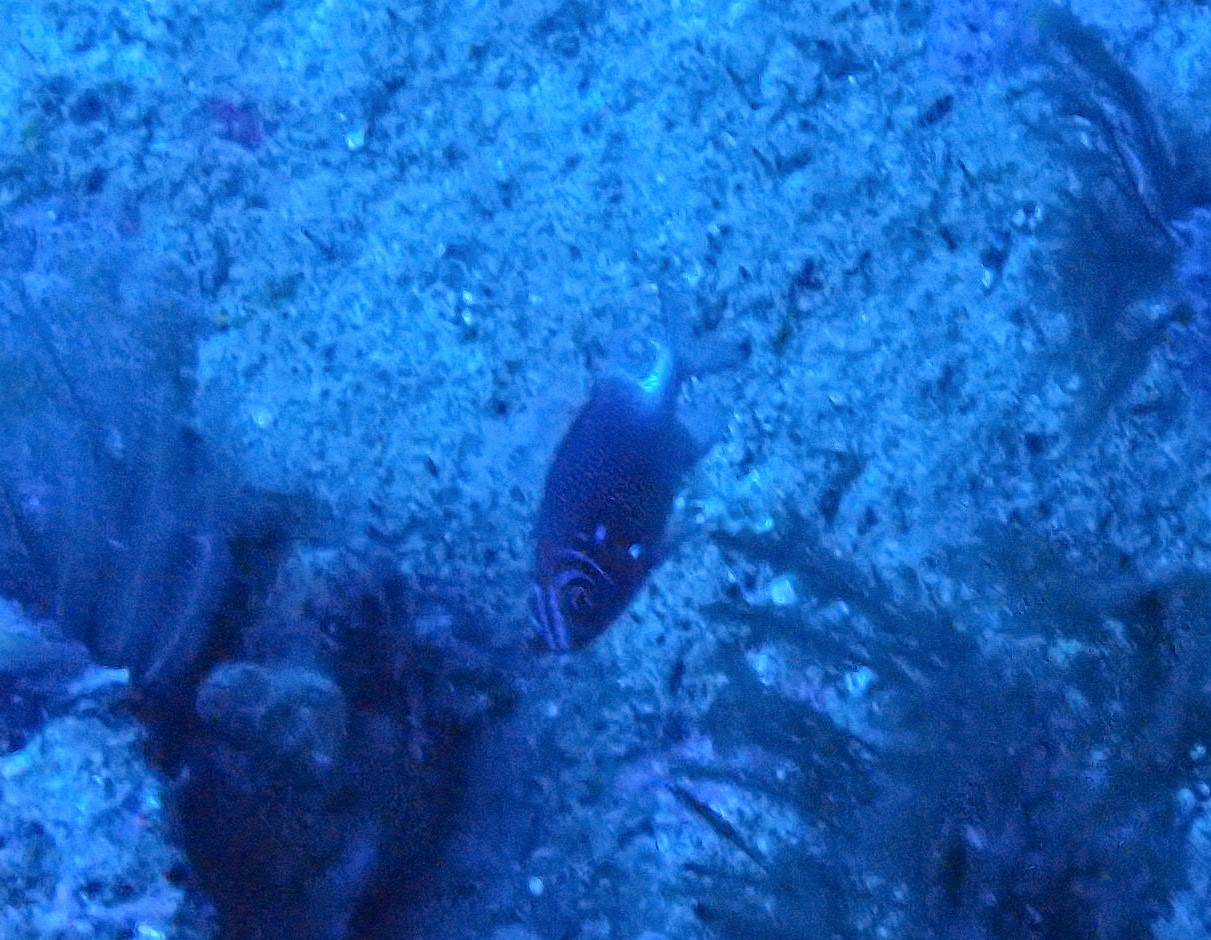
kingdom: Animalia
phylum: Chordata
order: Beryciformes
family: Holocentridae
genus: Sargocentron
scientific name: Sargocentron caudimaculatum
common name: Fanfin soldier
